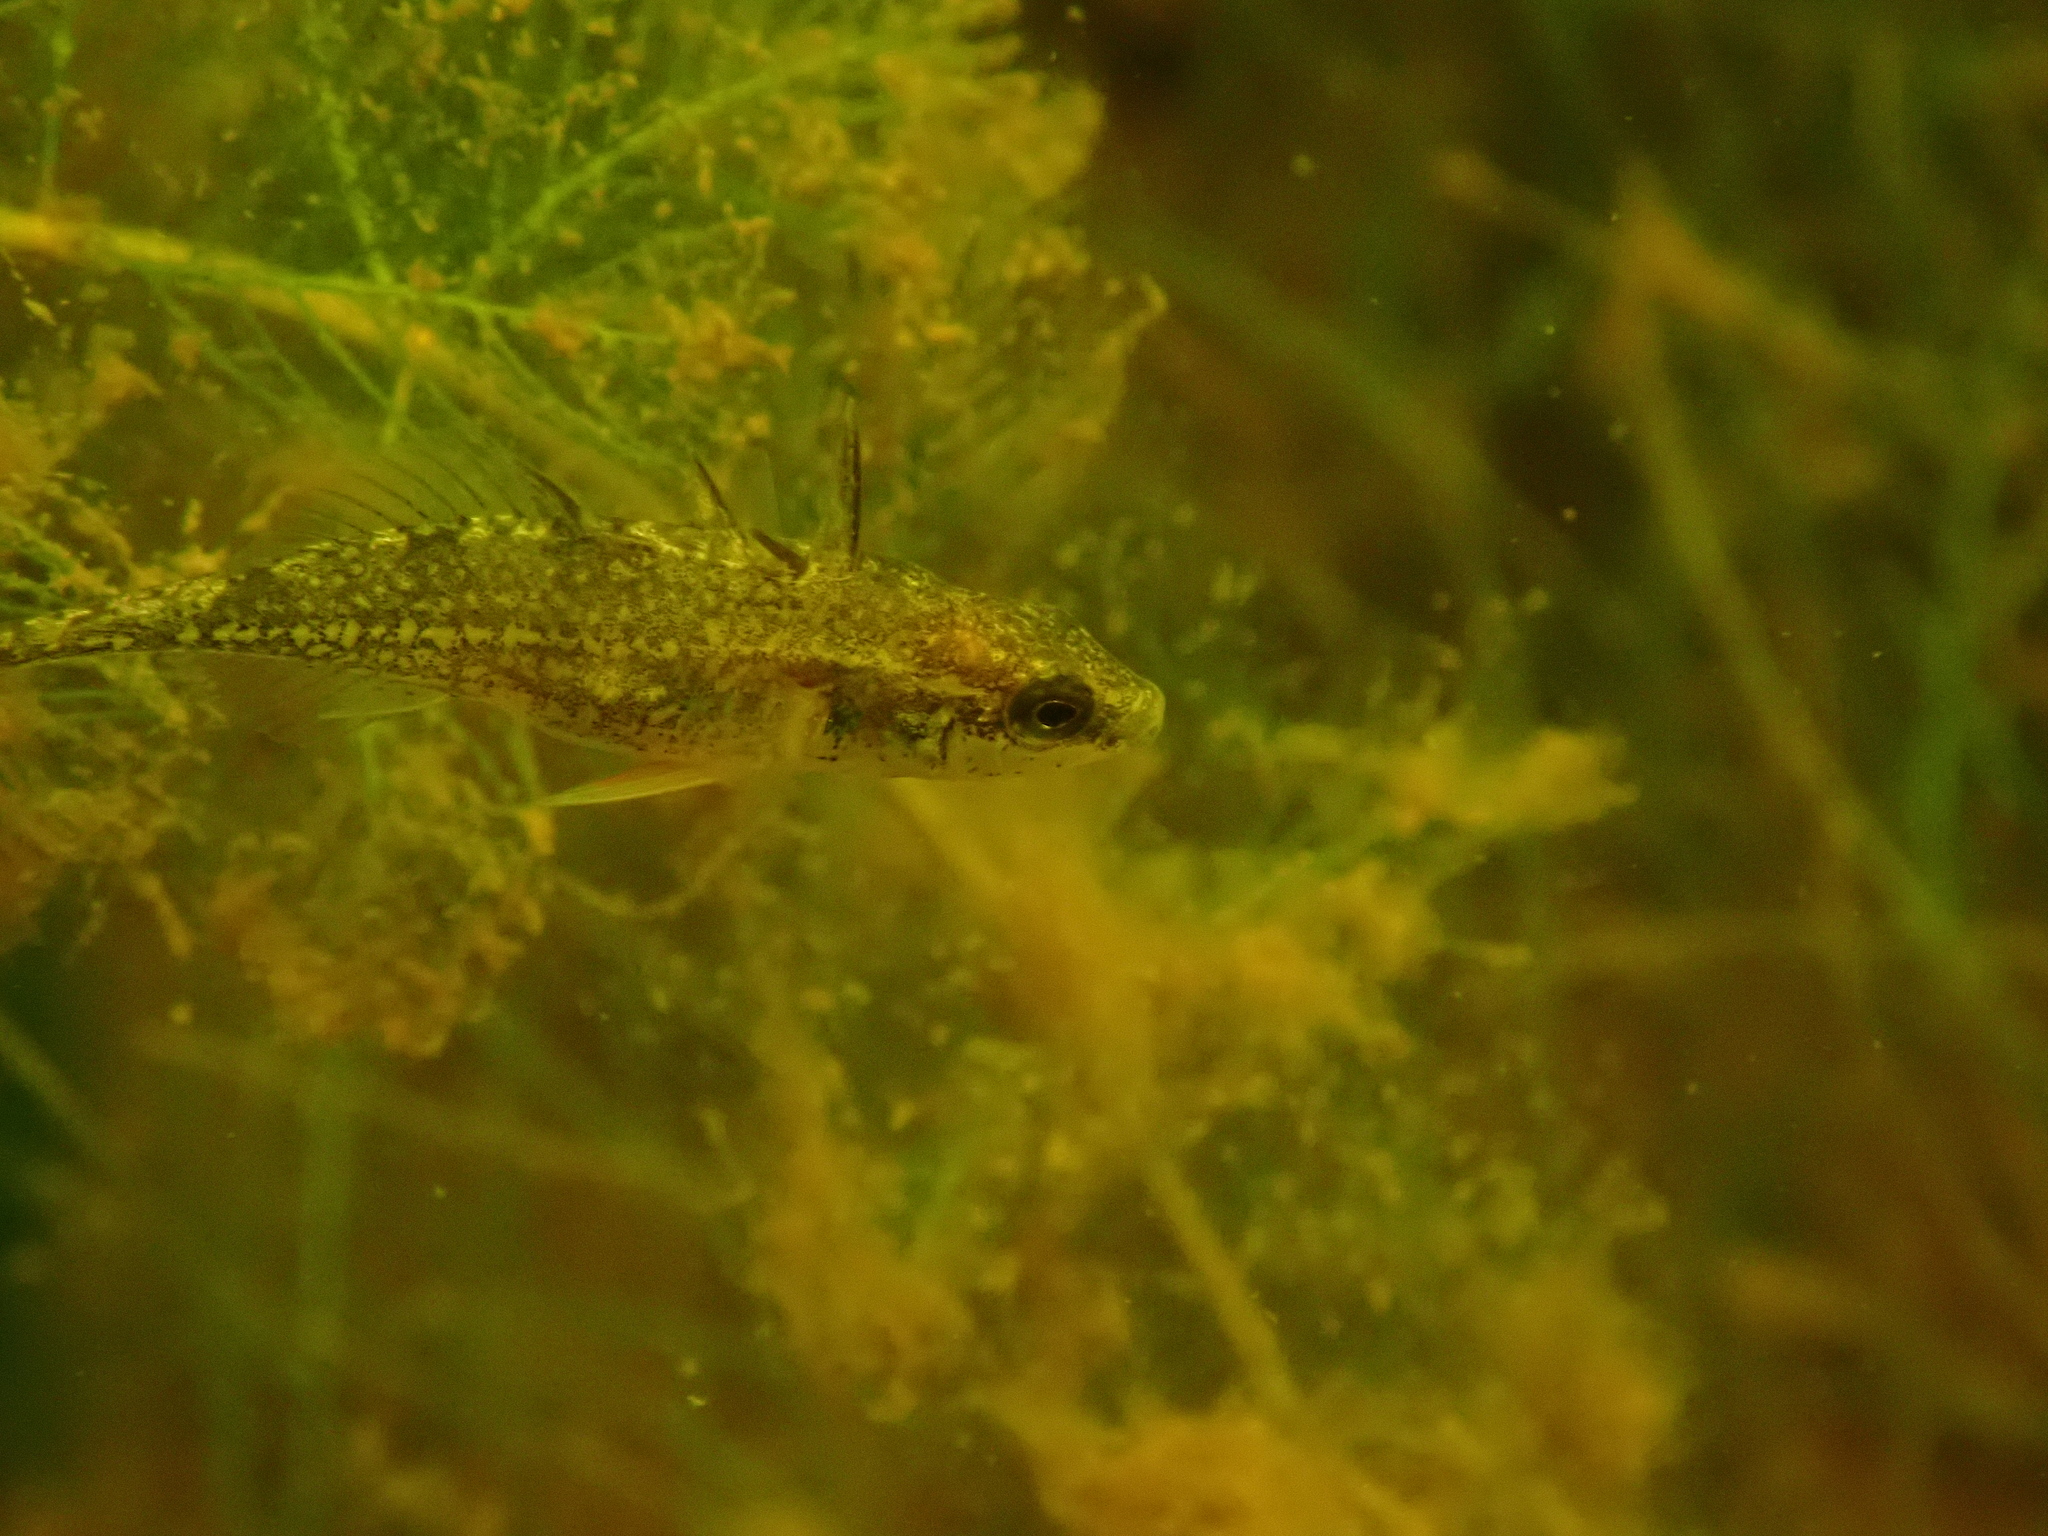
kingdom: Animalia
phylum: Chordata
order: Gasterosteiformes
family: Gasterosteidae
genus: Gasterosteus
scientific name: Gasterosteus aculeatus
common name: Three-spined stickleback
